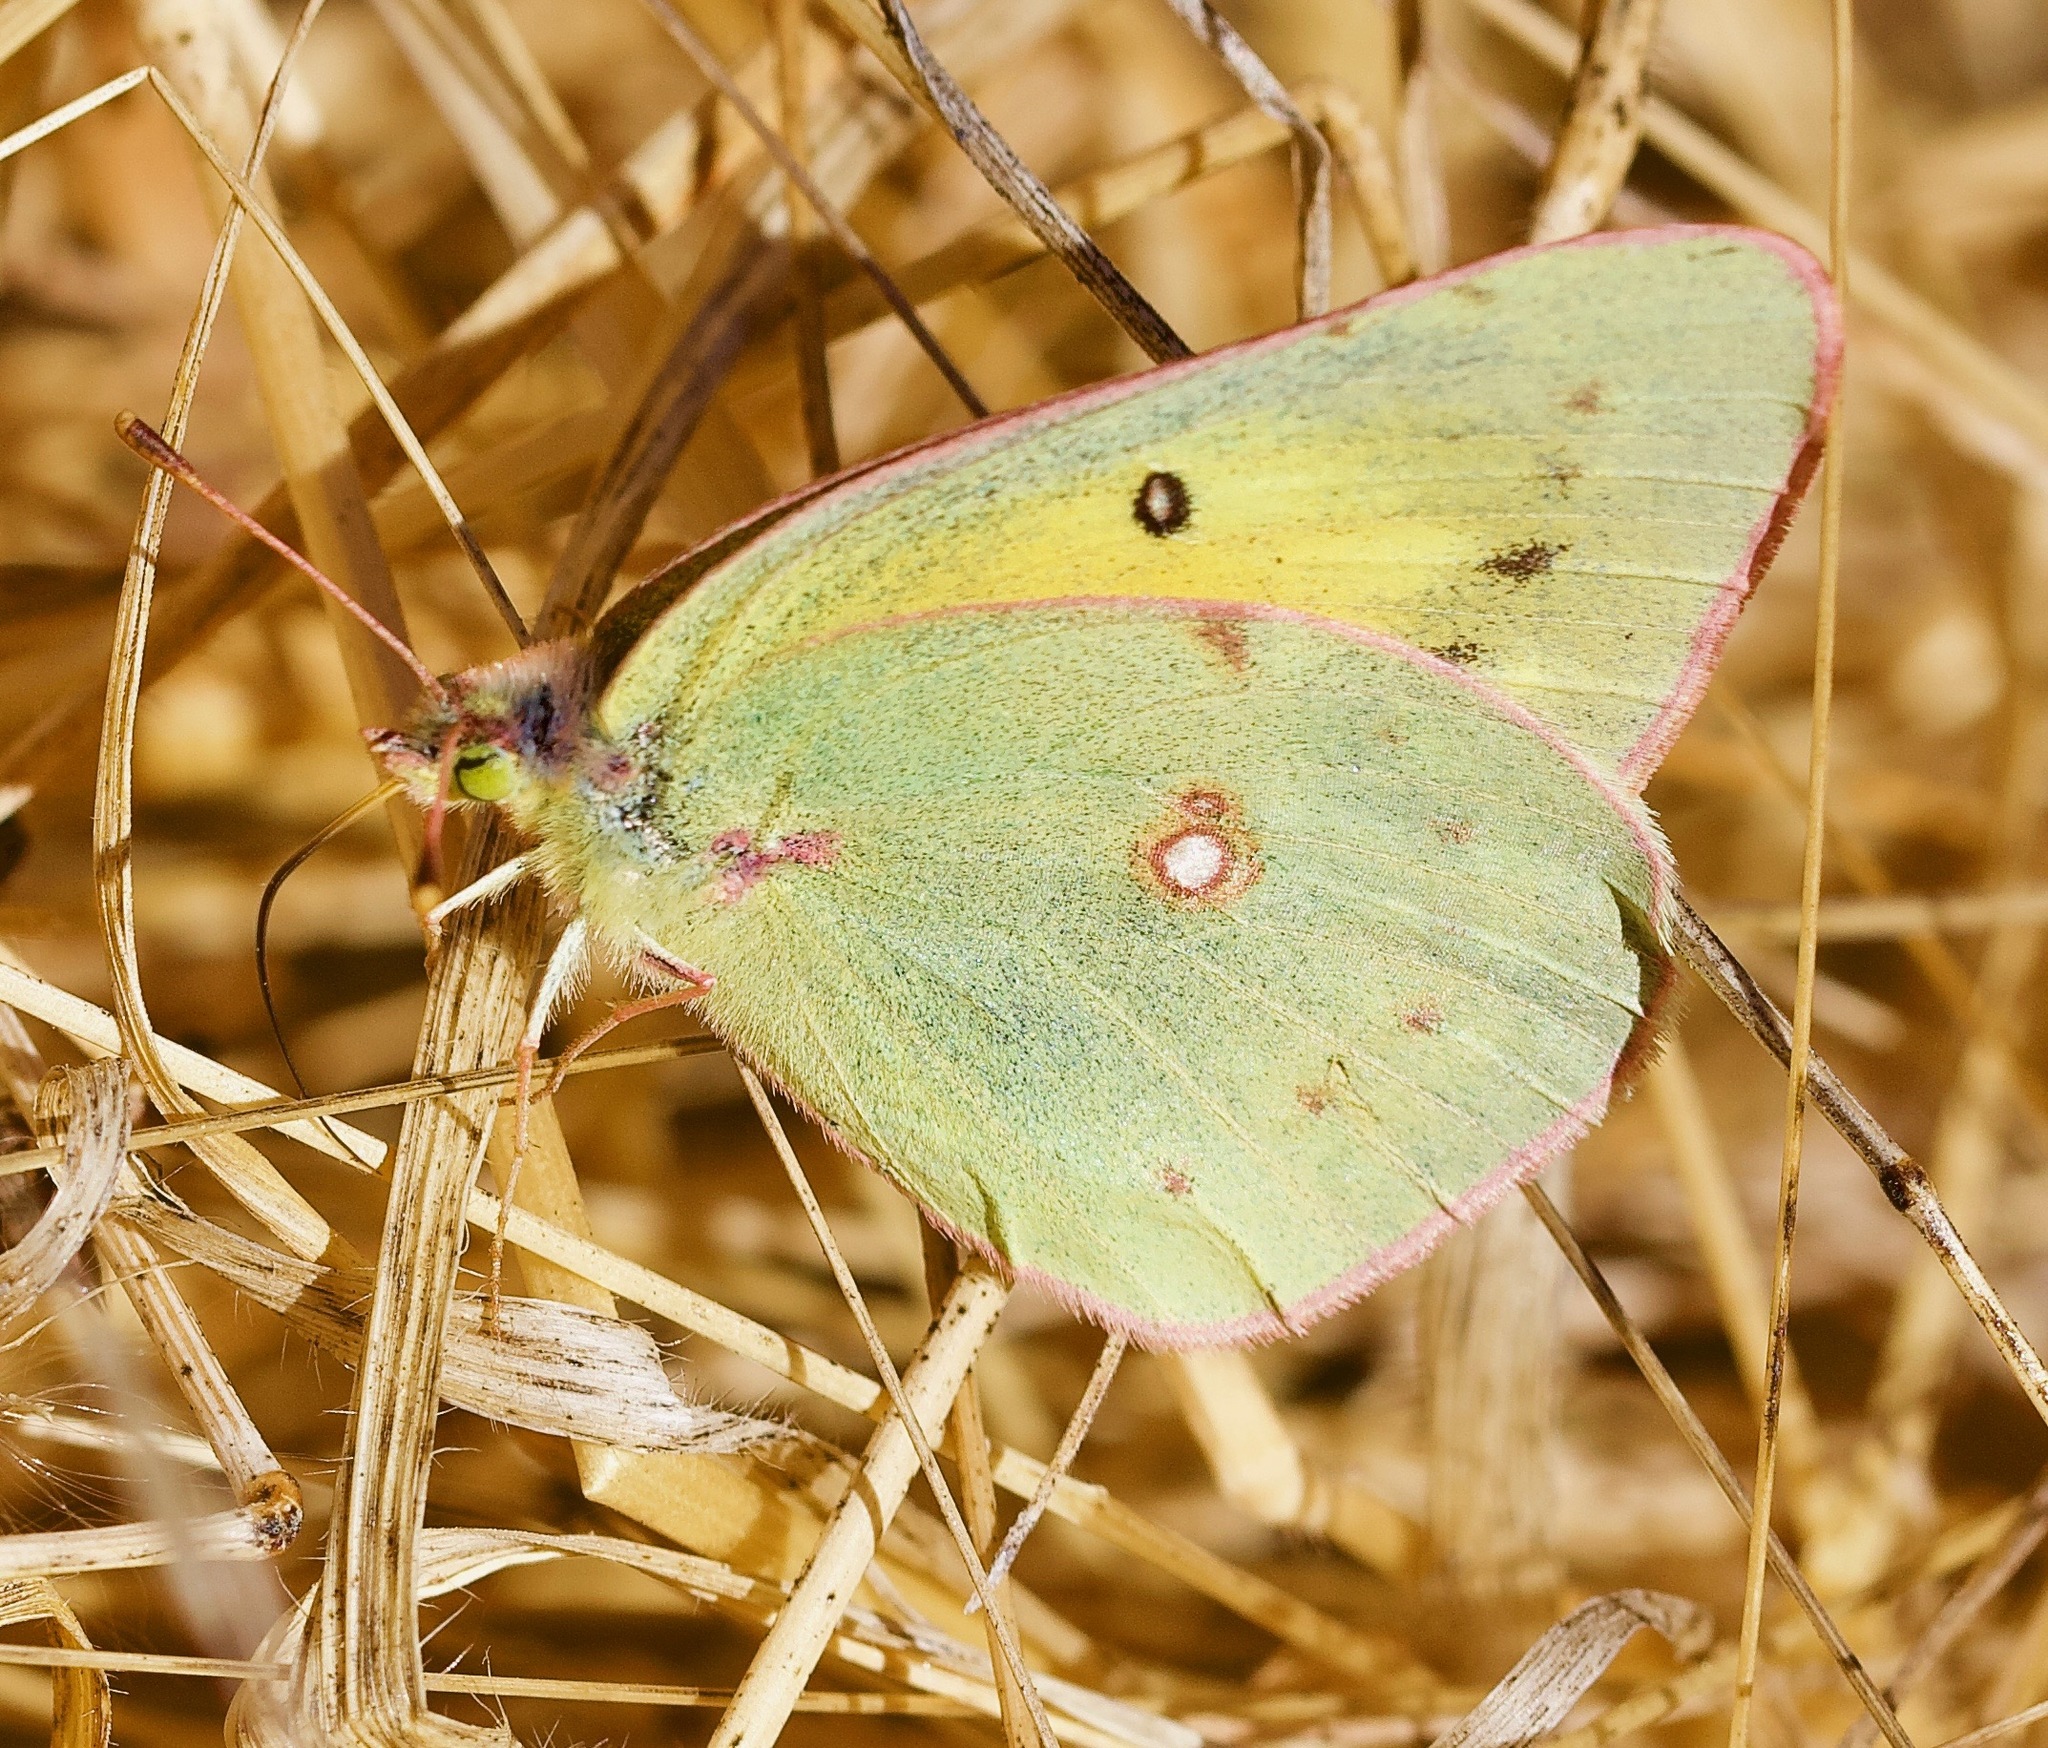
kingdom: Animalia
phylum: Arthropoda
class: Insecta
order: Lepidoptera
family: Pieridae
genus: Colias
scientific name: Colias eurytheme
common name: Alfalfa butterfly
